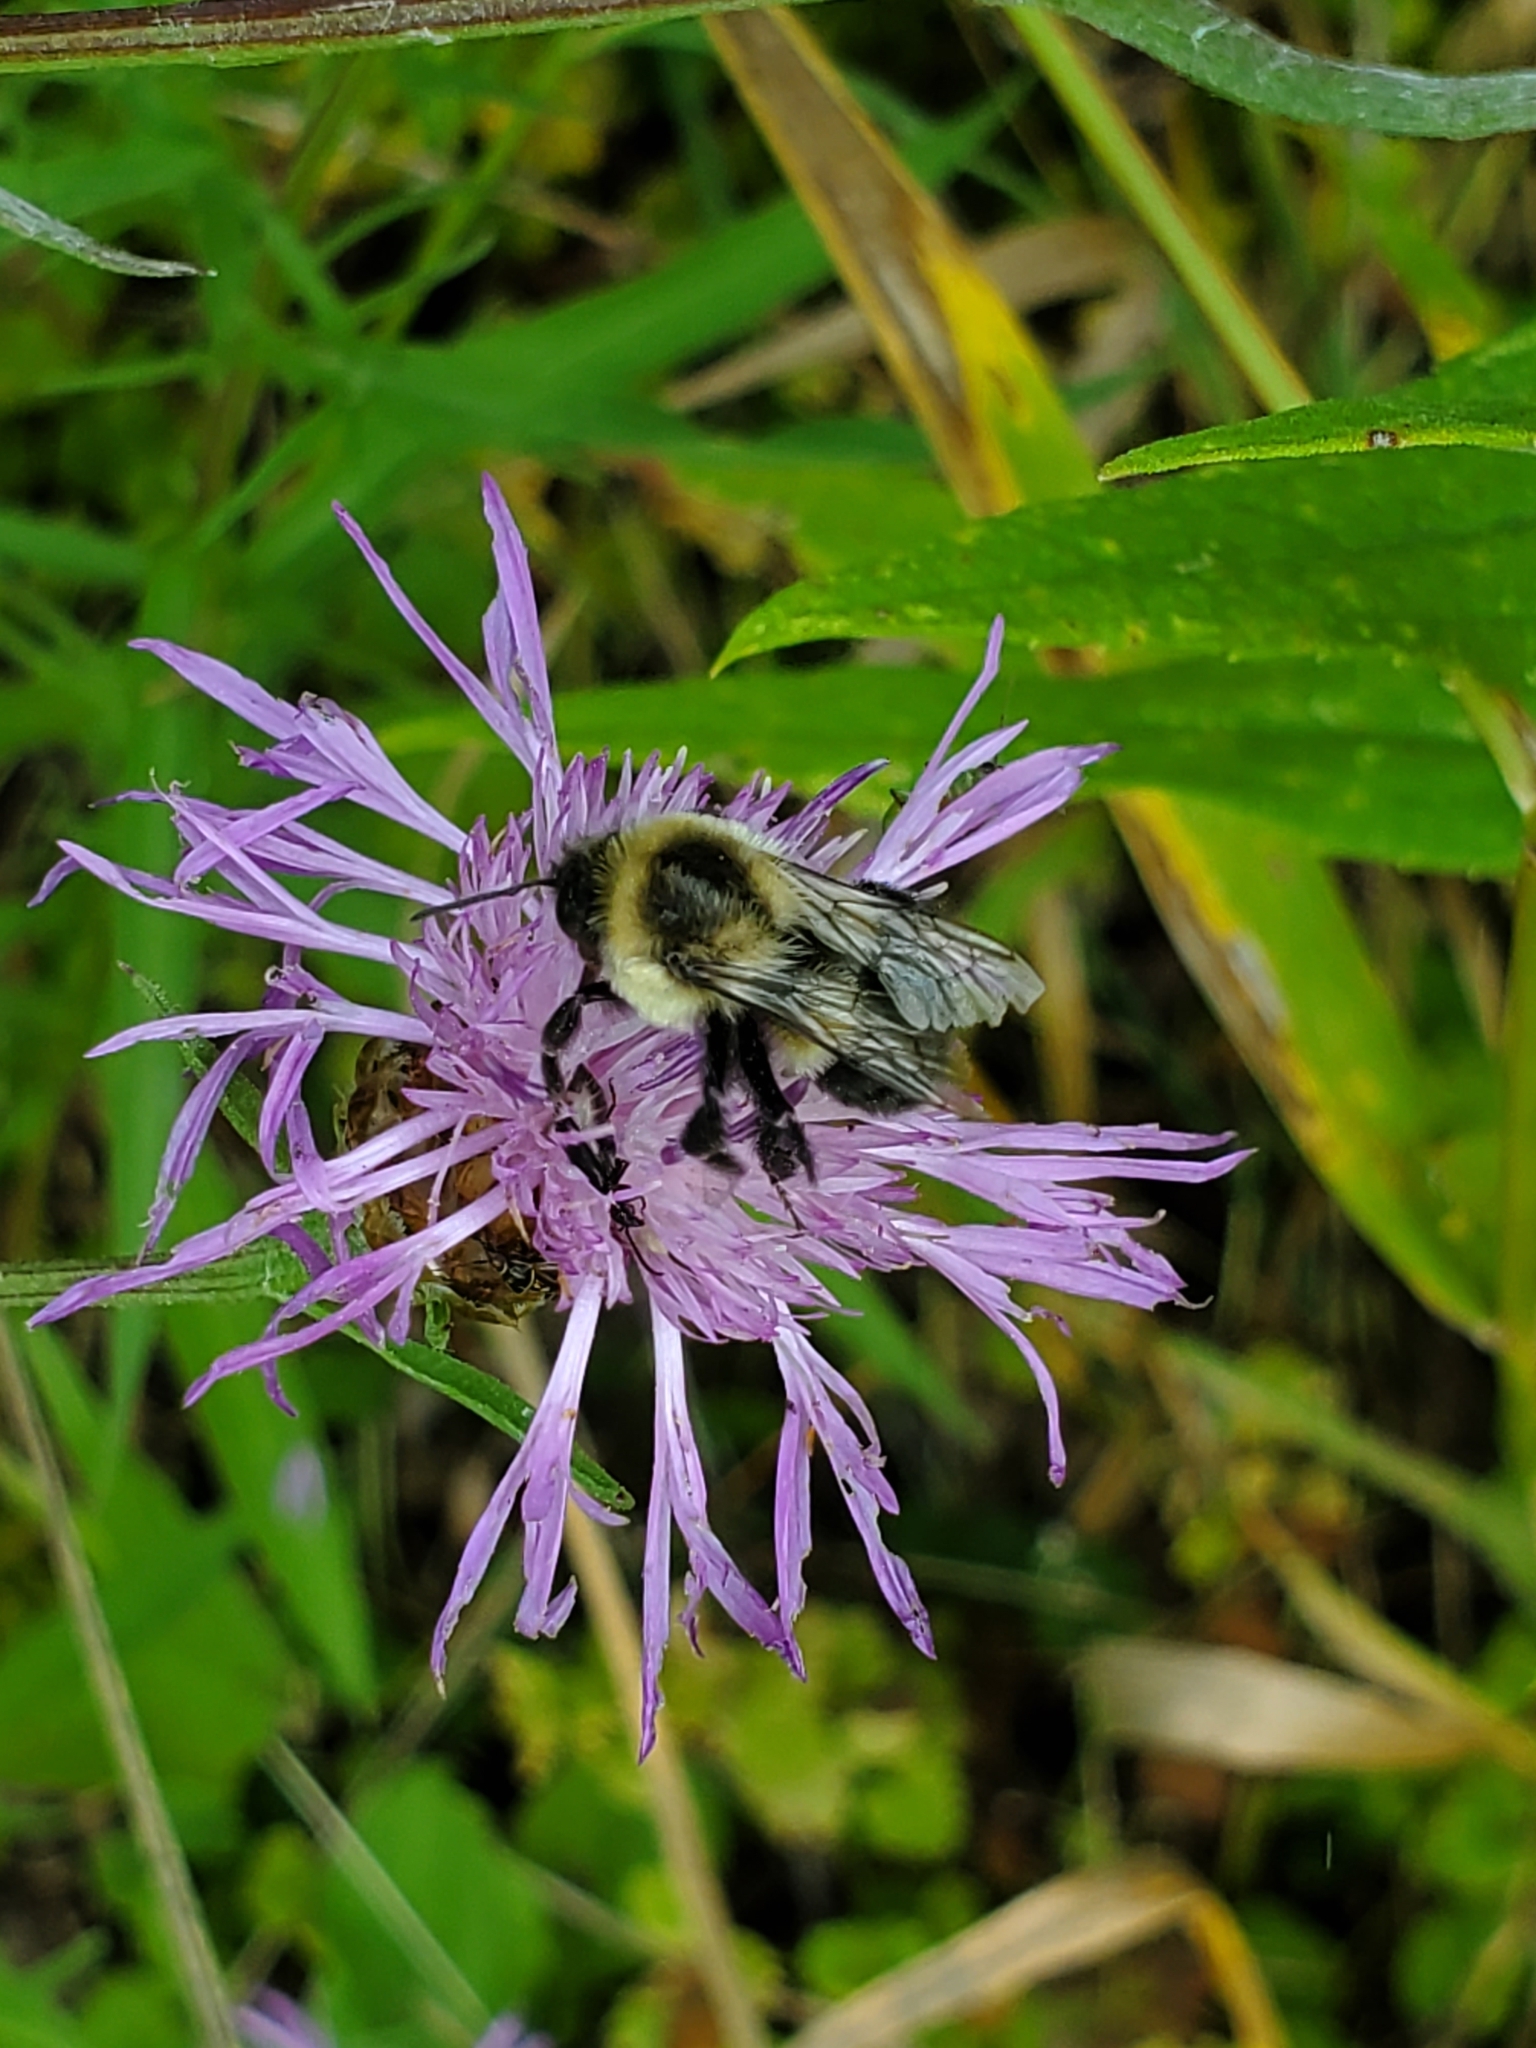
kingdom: Animalia
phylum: Arthropoda
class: Insecta
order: Hymenoptera
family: Apidae
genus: Bombus
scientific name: Bombus impatiens
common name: Common eastern bumble bee
